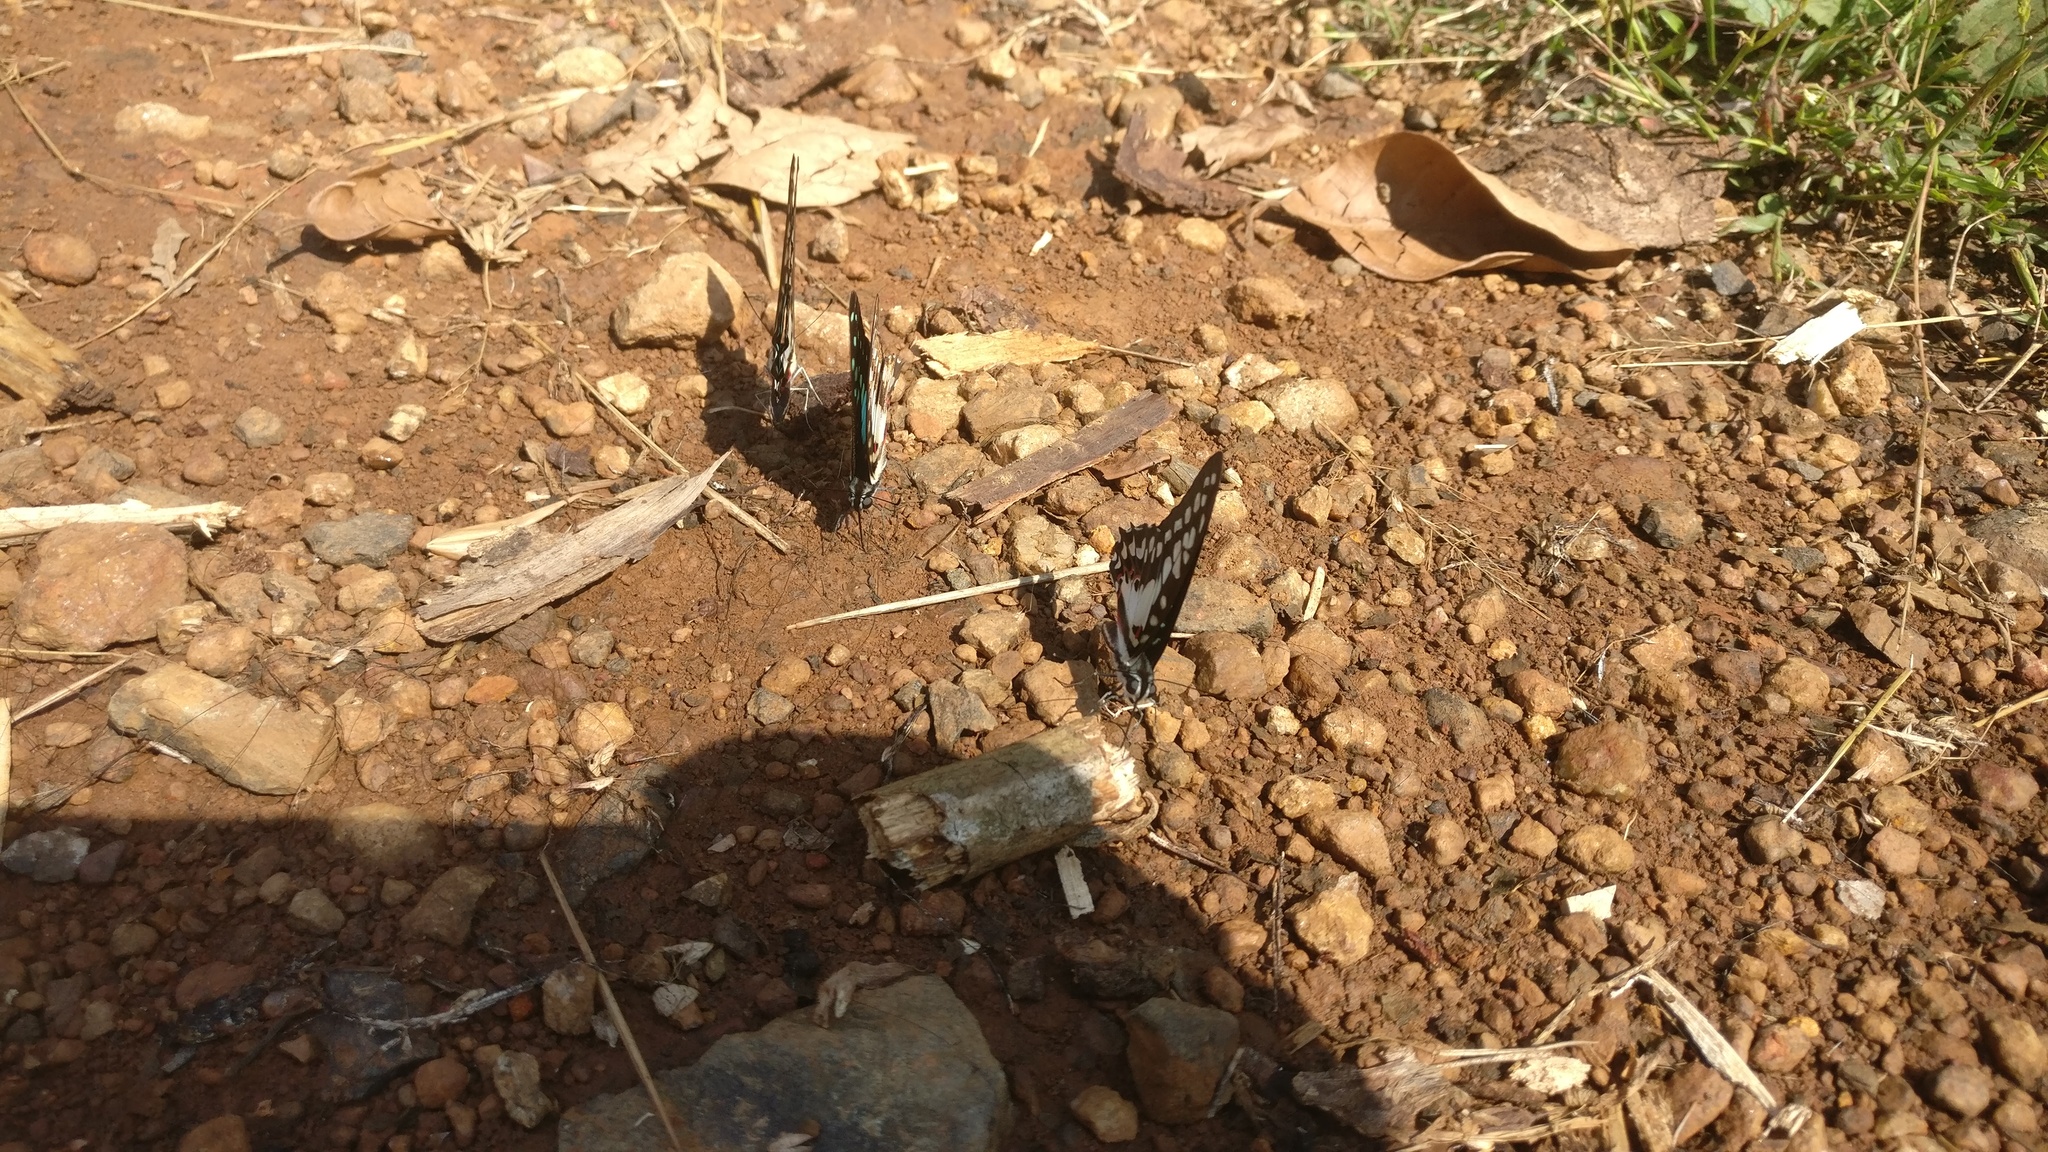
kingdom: Animalia
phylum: Arthropoda
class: Insecta
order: Lepidoptera
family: Papilionidae
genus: Graphium
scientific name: Graphium doson
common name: Common jay
